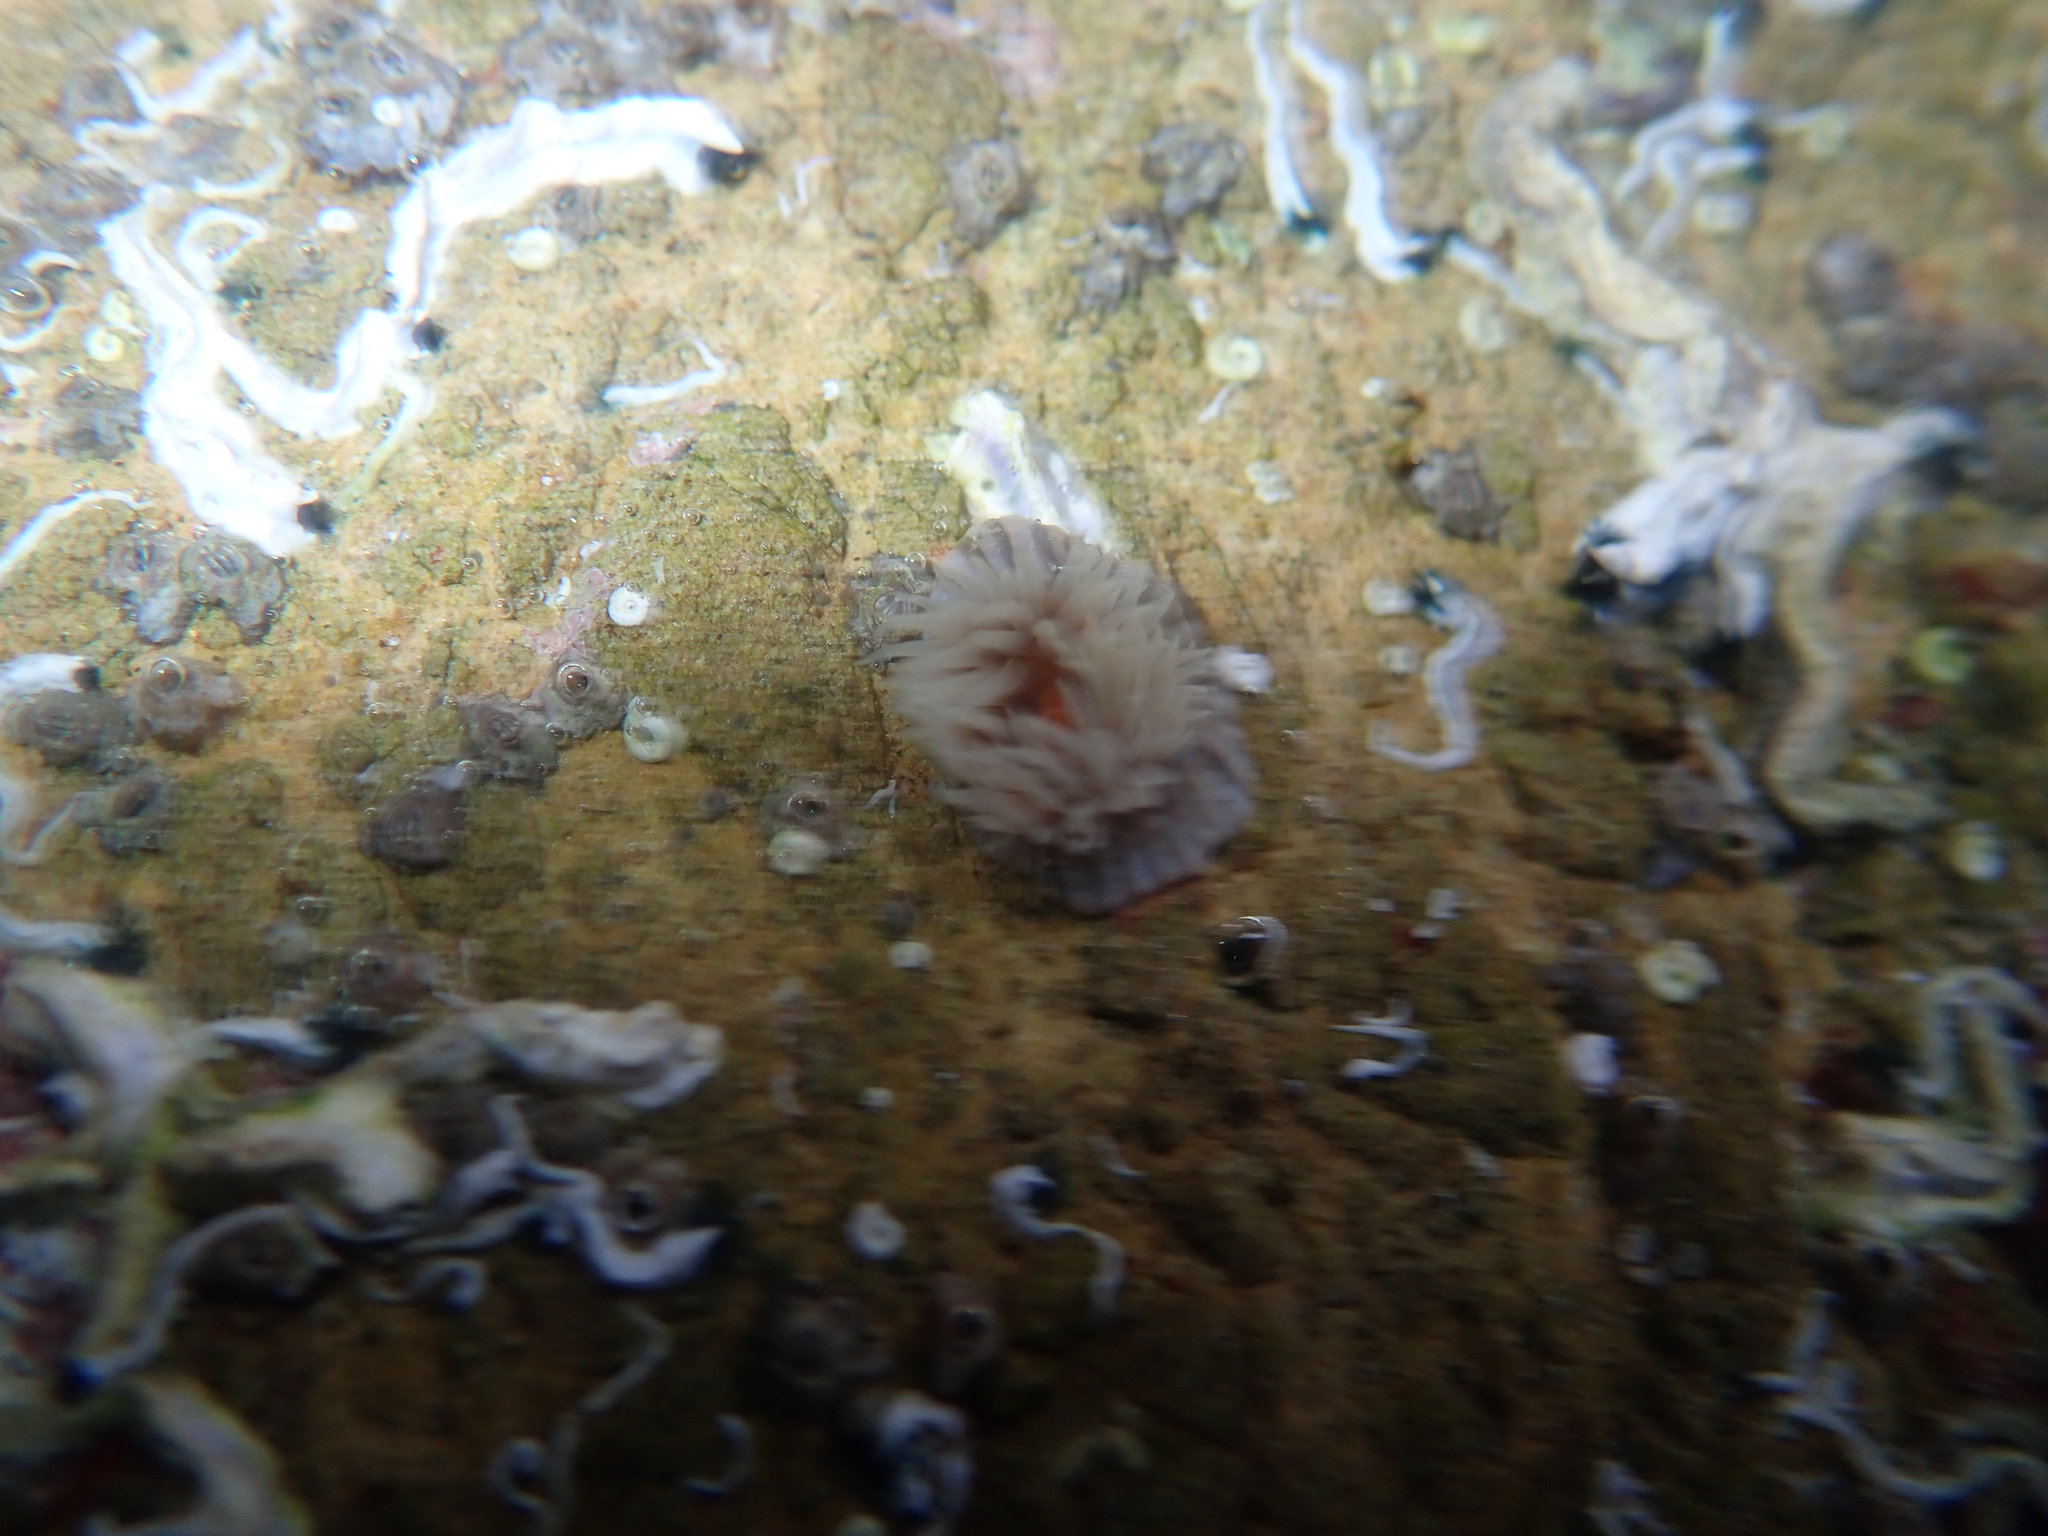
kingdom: Animalia
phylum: Cnidaria
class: Anthozoa
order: Actiniaria
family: Diadumenidae
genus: Diadumene
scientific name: Diadumene neozelanica
